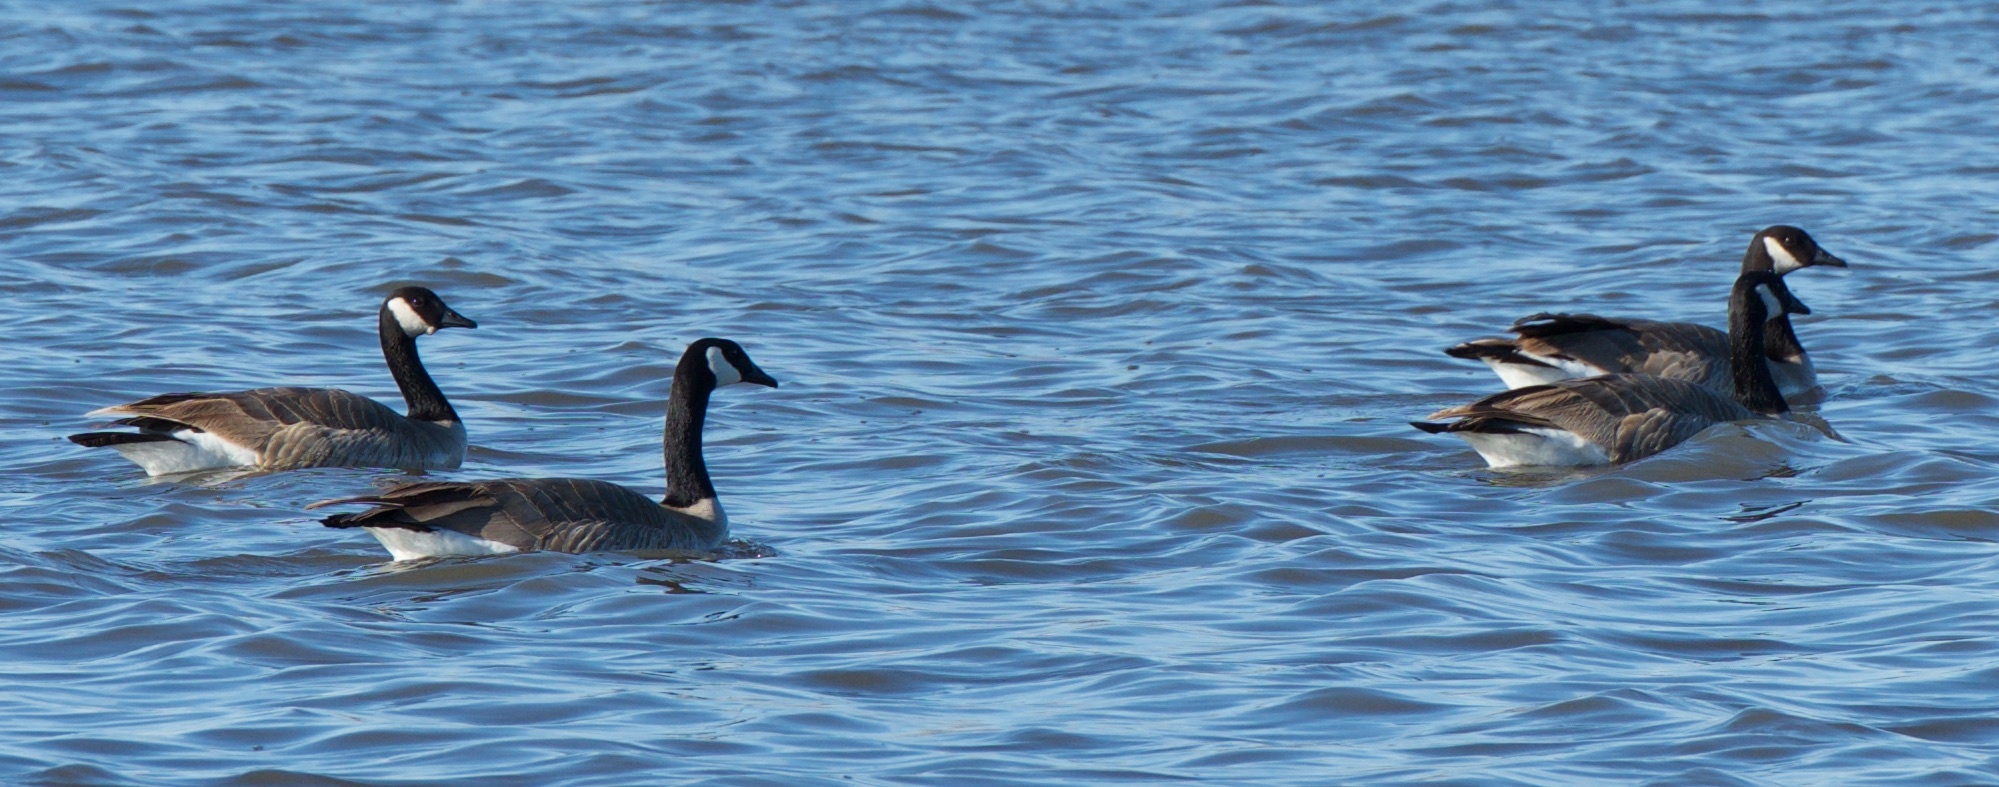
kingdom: Animalia
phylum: Chordata
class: Aves
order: Anseriformes
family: Anatidae
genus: Branta
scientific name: Branta canadensis
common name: Canada goose
